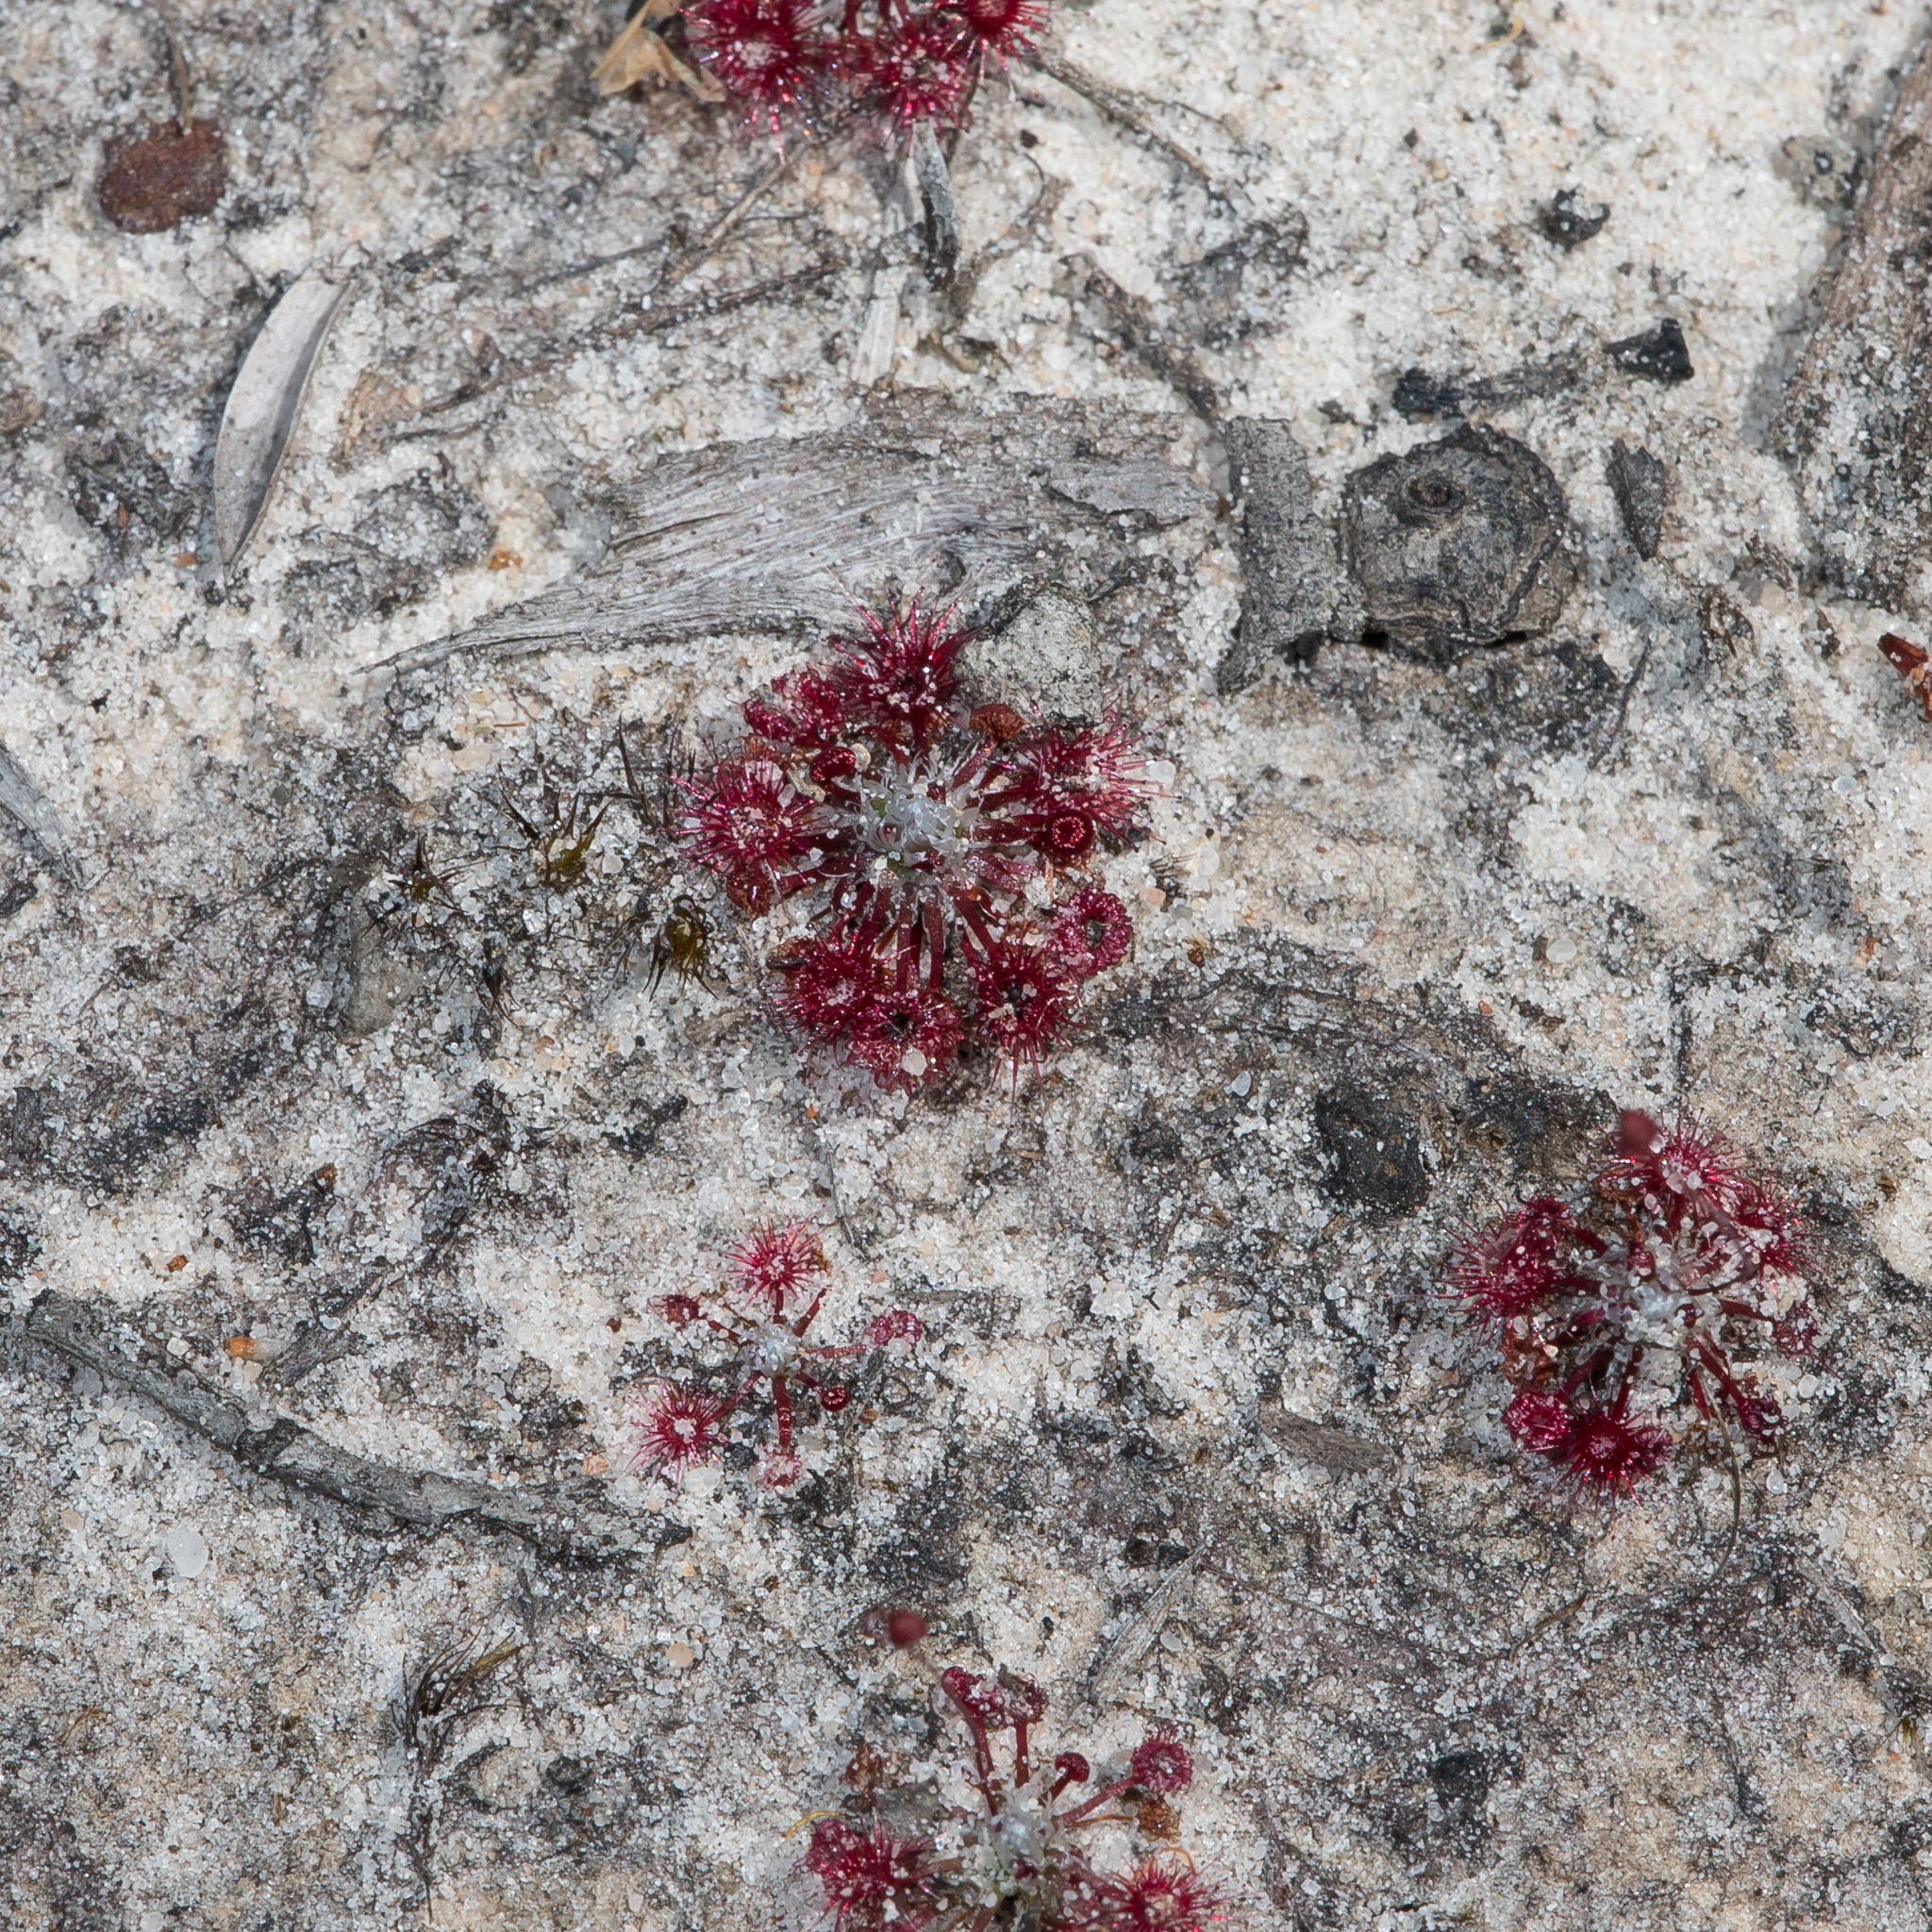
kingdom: Plantae
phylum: Tracheophyta
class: Magnoliopsida
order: Caryophyllales
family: Droseraceae
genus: Drosera
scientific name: Drosera pygmaea
